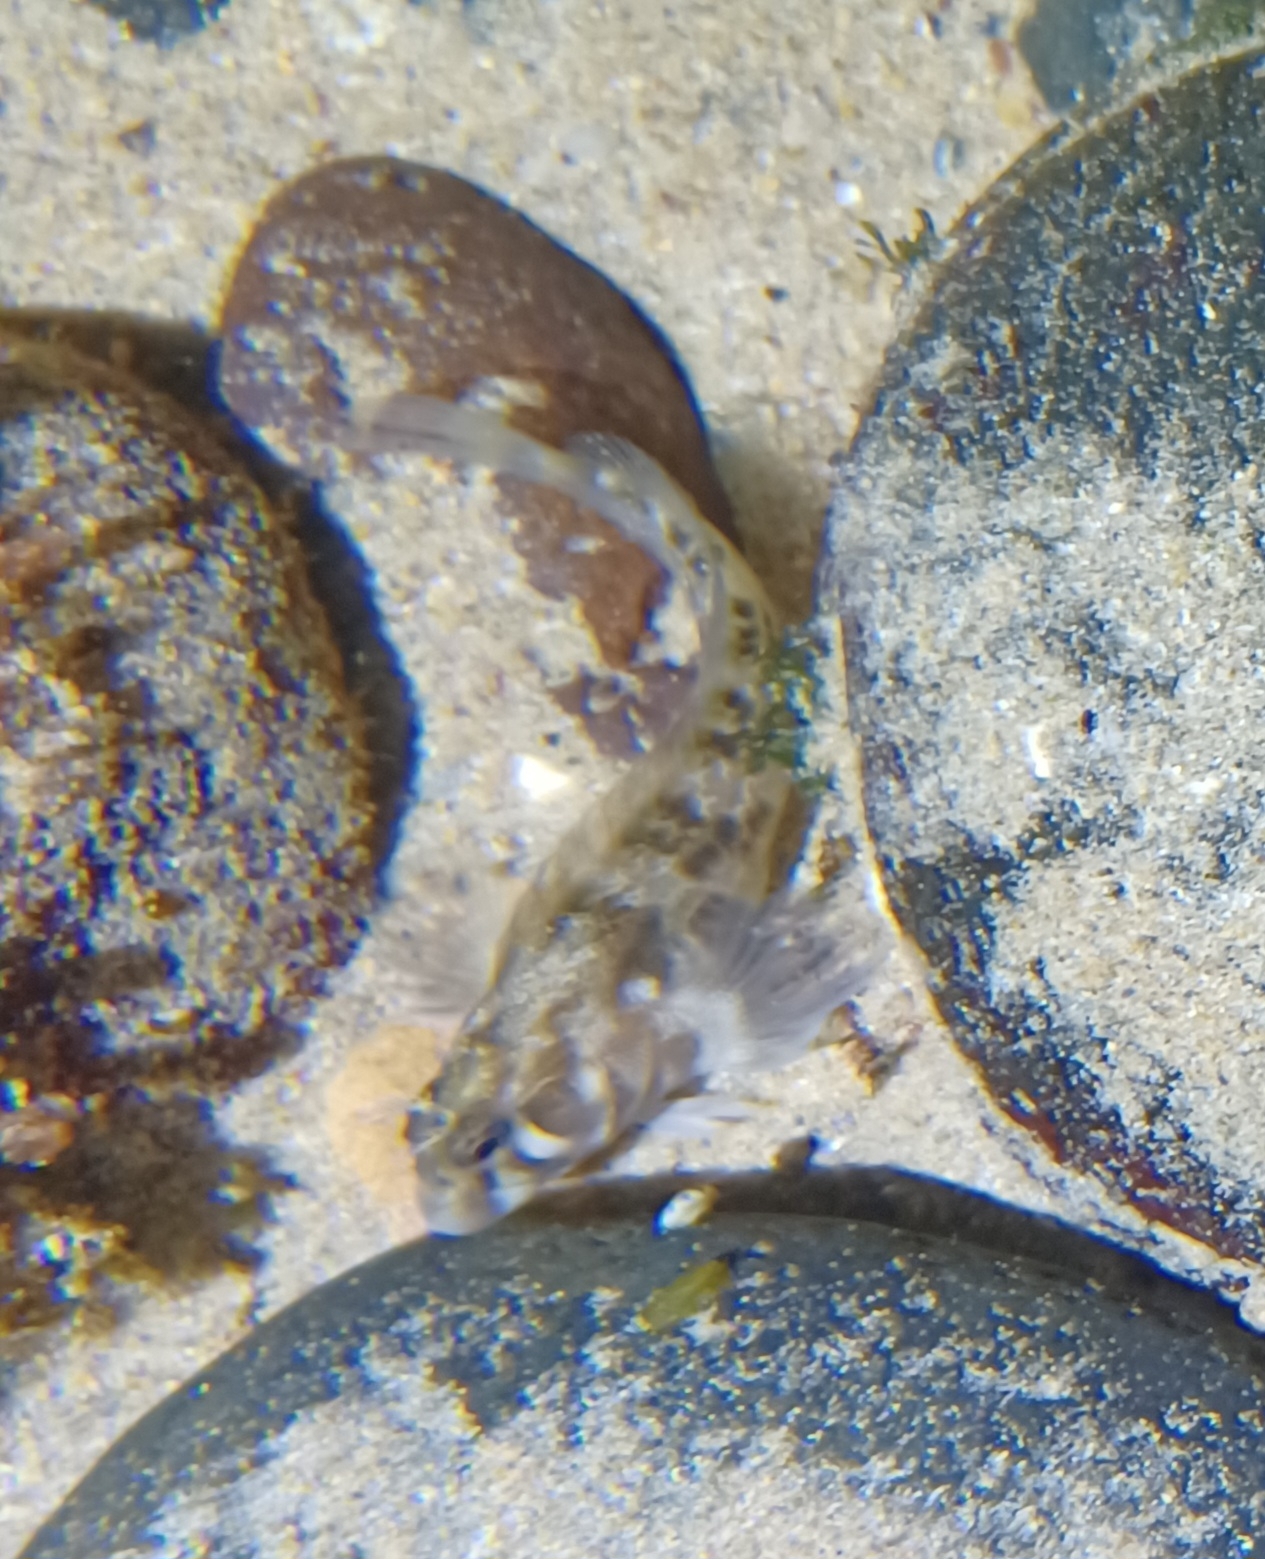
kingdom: Animalia
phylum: Chordata
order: Perciformes
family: Blenniidae
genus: Parablennius
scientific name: Parablennius tasmanianus
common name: Tasmanian blenny
